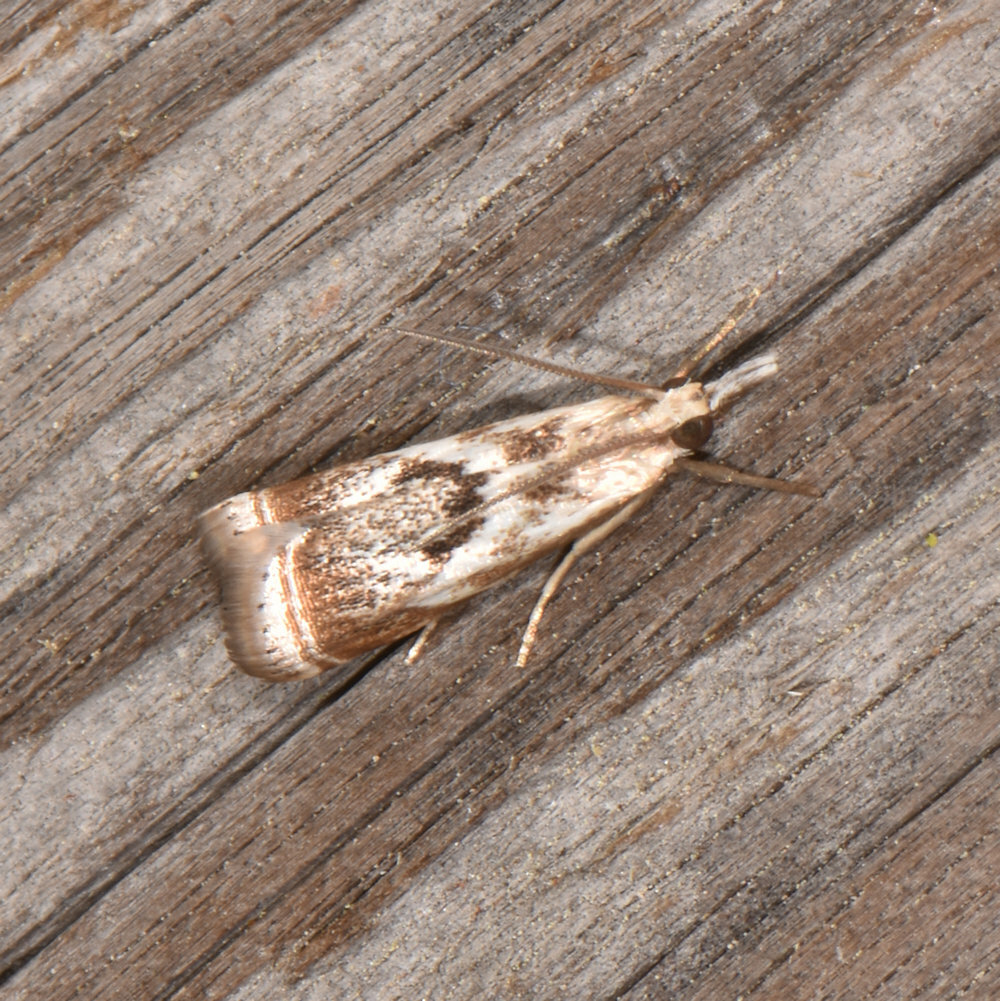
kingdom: Animalia
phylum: Arthropoda
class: Insecta
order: Lepidoptera
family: Crambidae
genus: Microcrambus
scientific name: Microcrambus elegans
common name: Elegant grass-veneer
